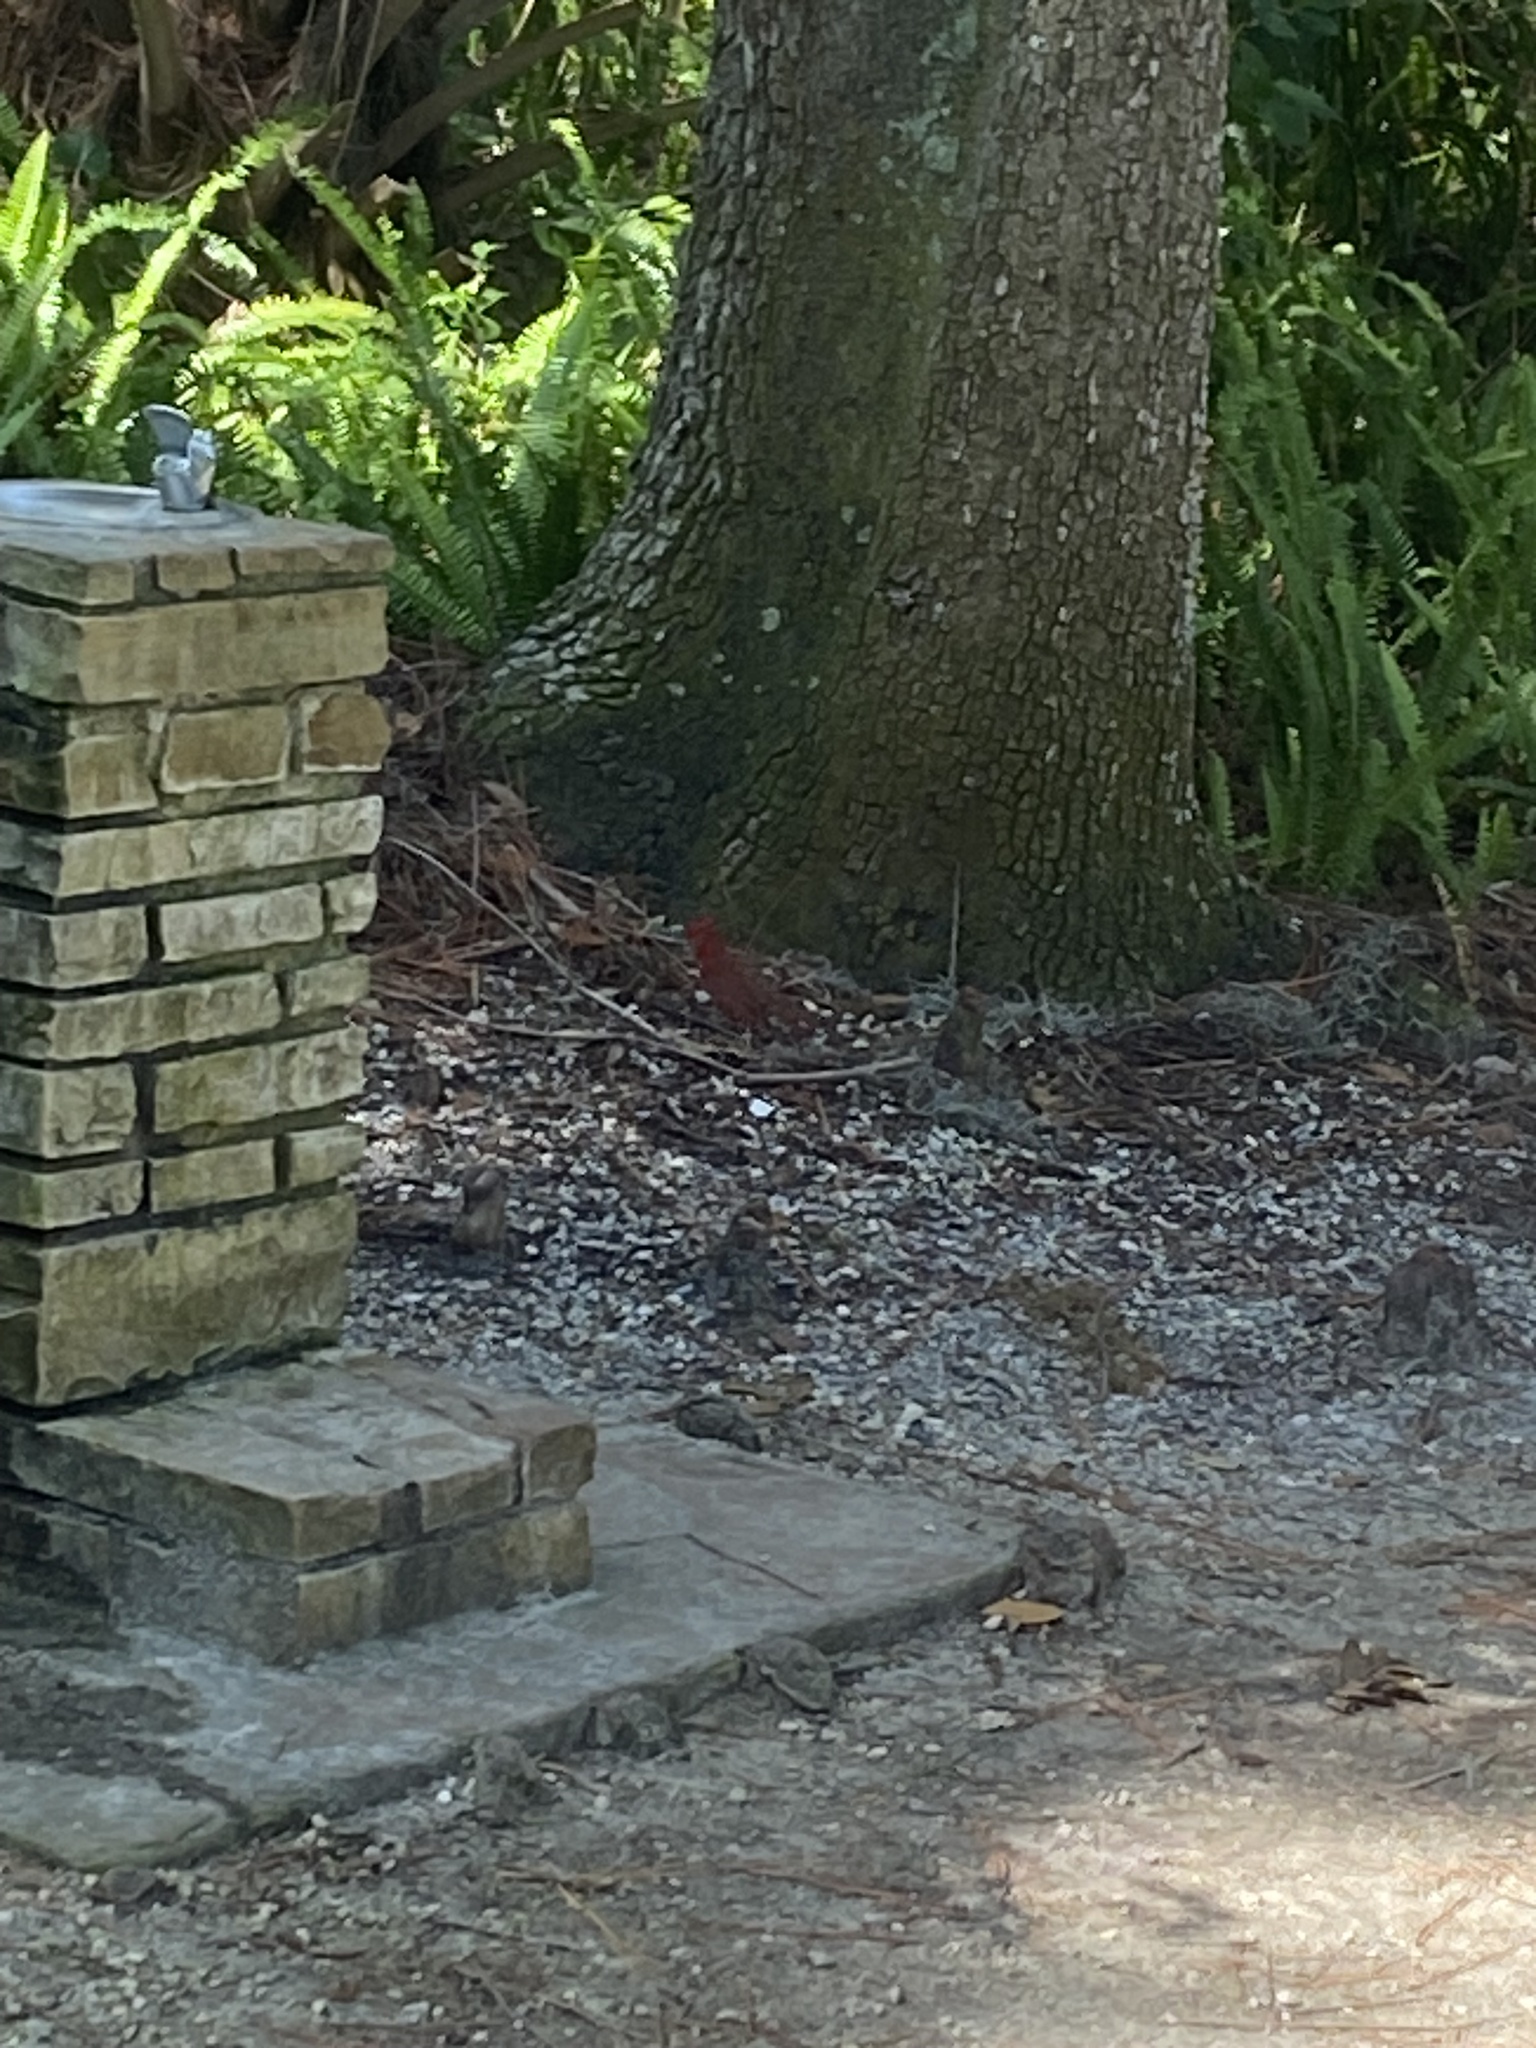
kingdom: Animalia
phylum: Chordata
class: Aves
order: Passeriformes
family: Cardinalidae
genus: Cardinalis
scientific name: Cardinalis cardinalis
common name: Northern cardinal
